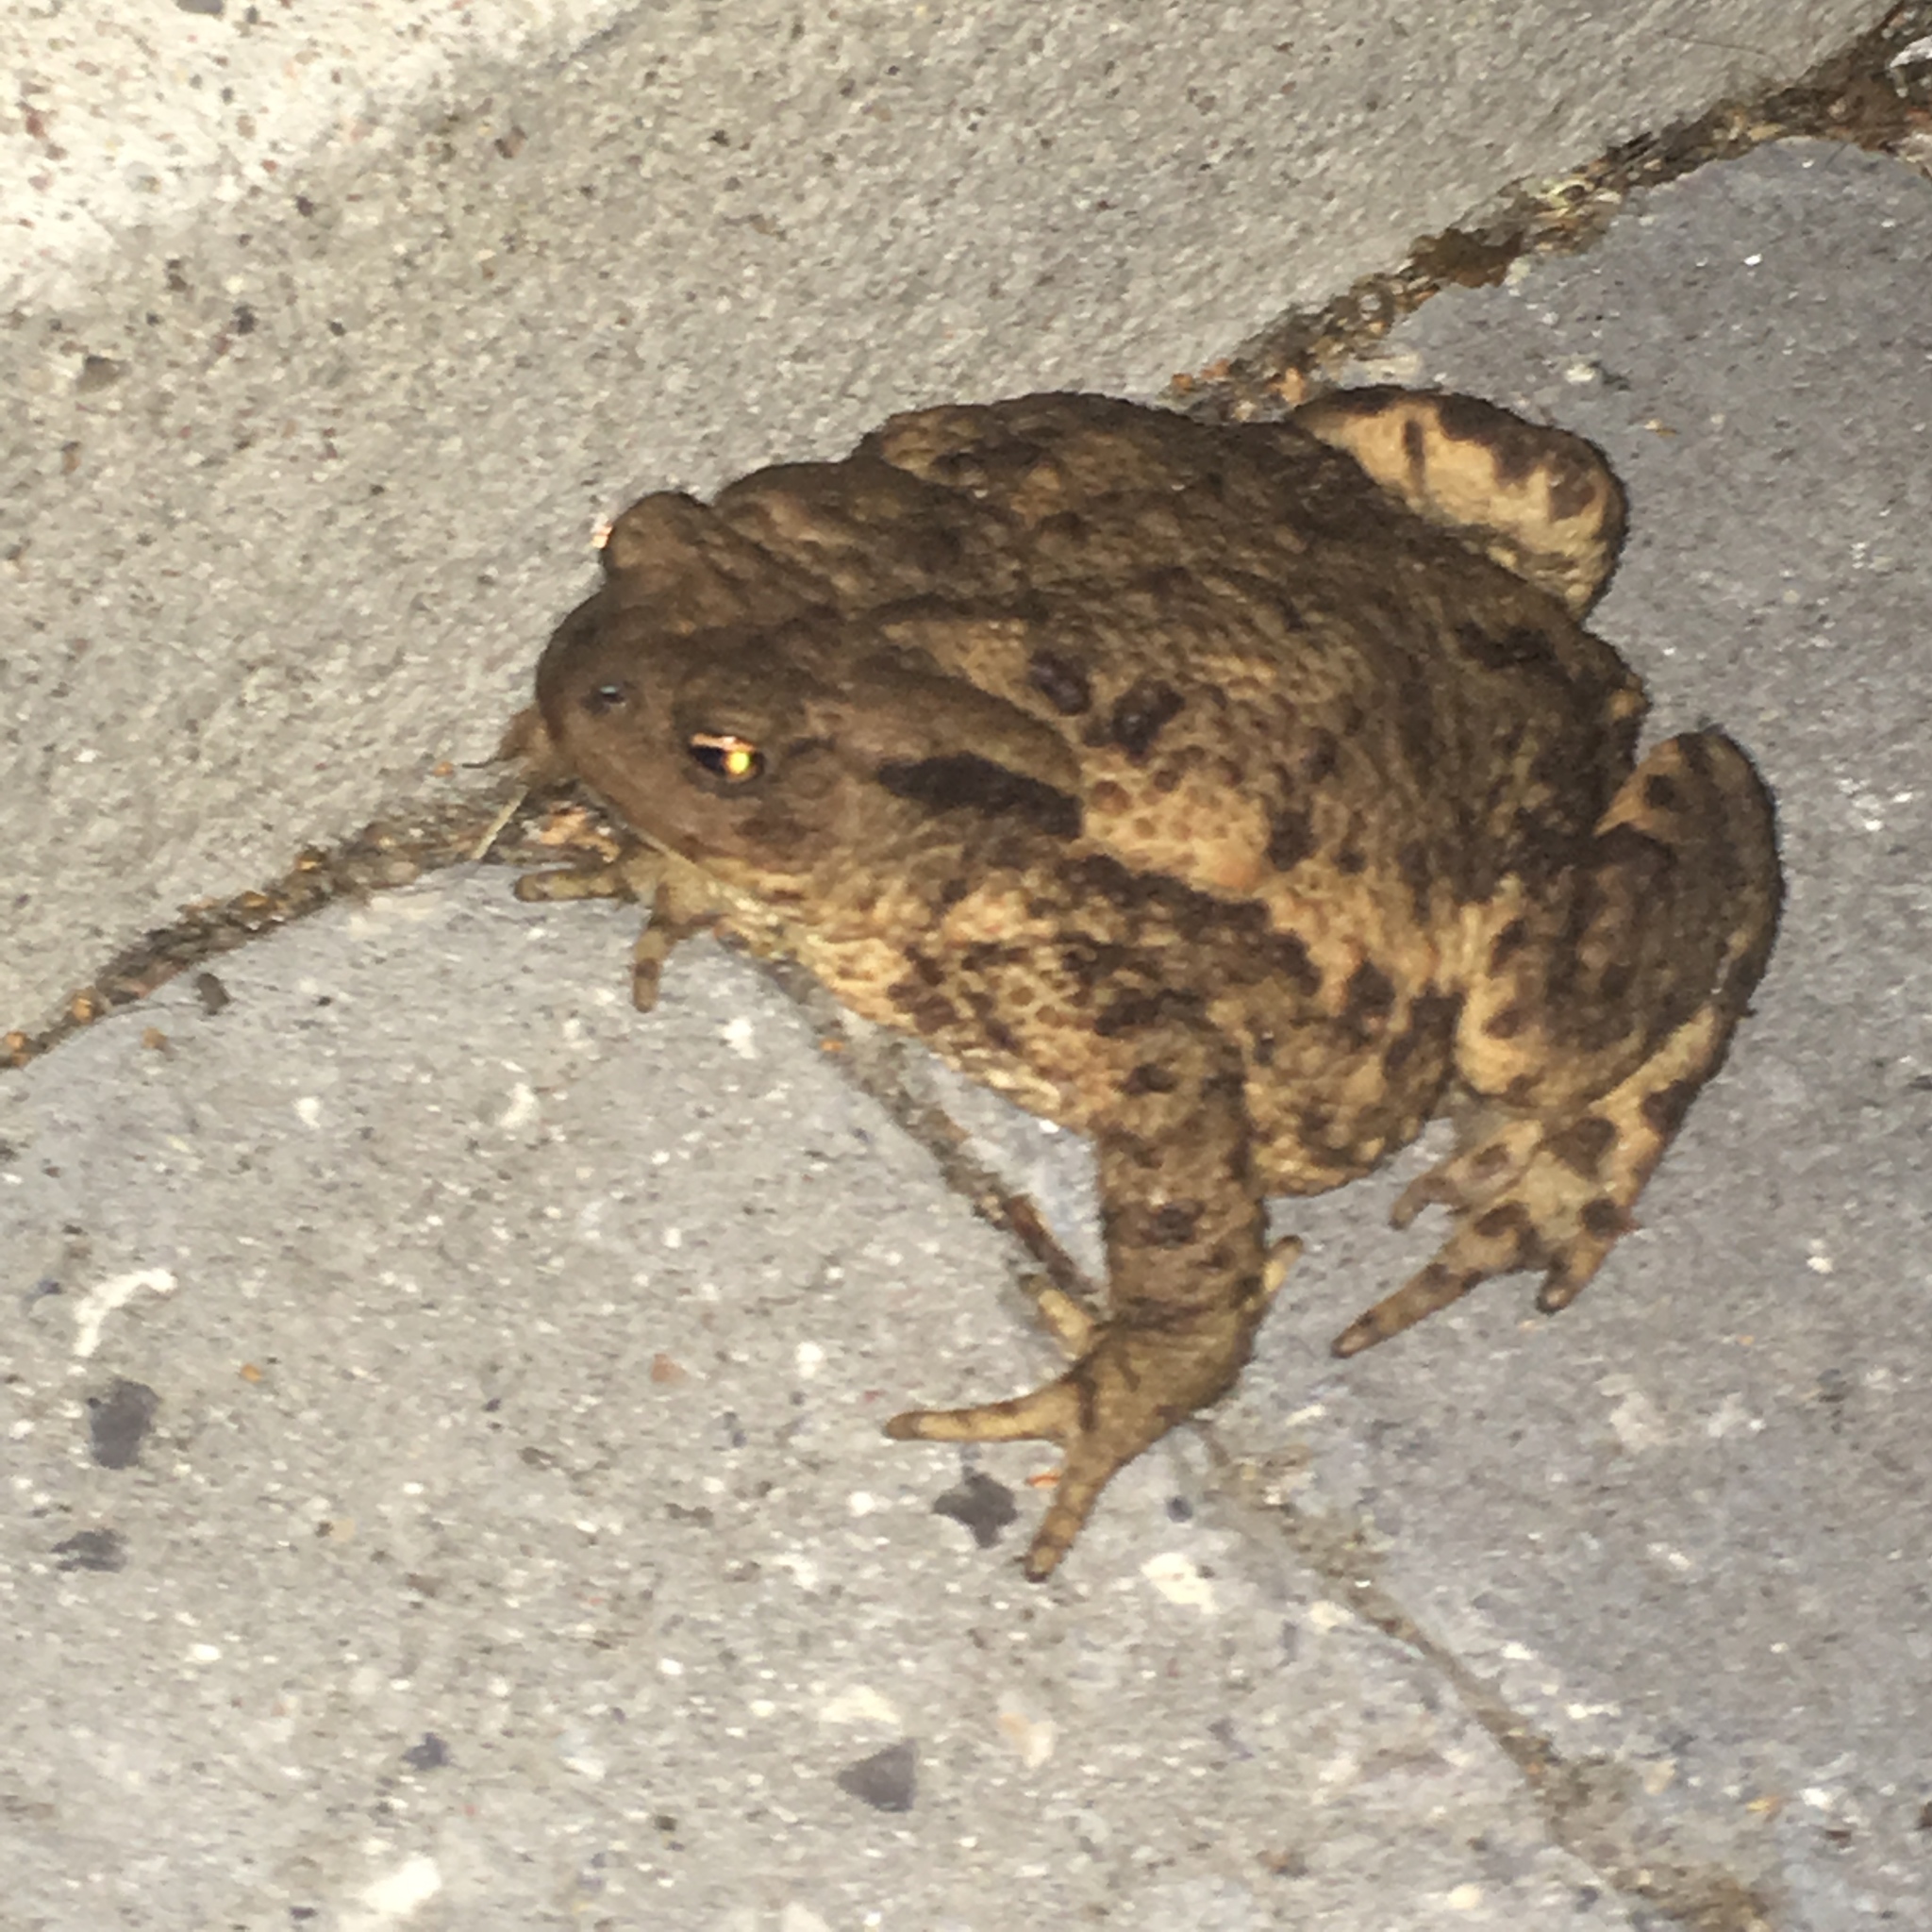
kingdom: Animalia
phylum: Chordata
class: Amphibia
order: Anura
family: Bufonidae
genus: Bufo
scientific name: Bufo bufo
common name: Common toad
